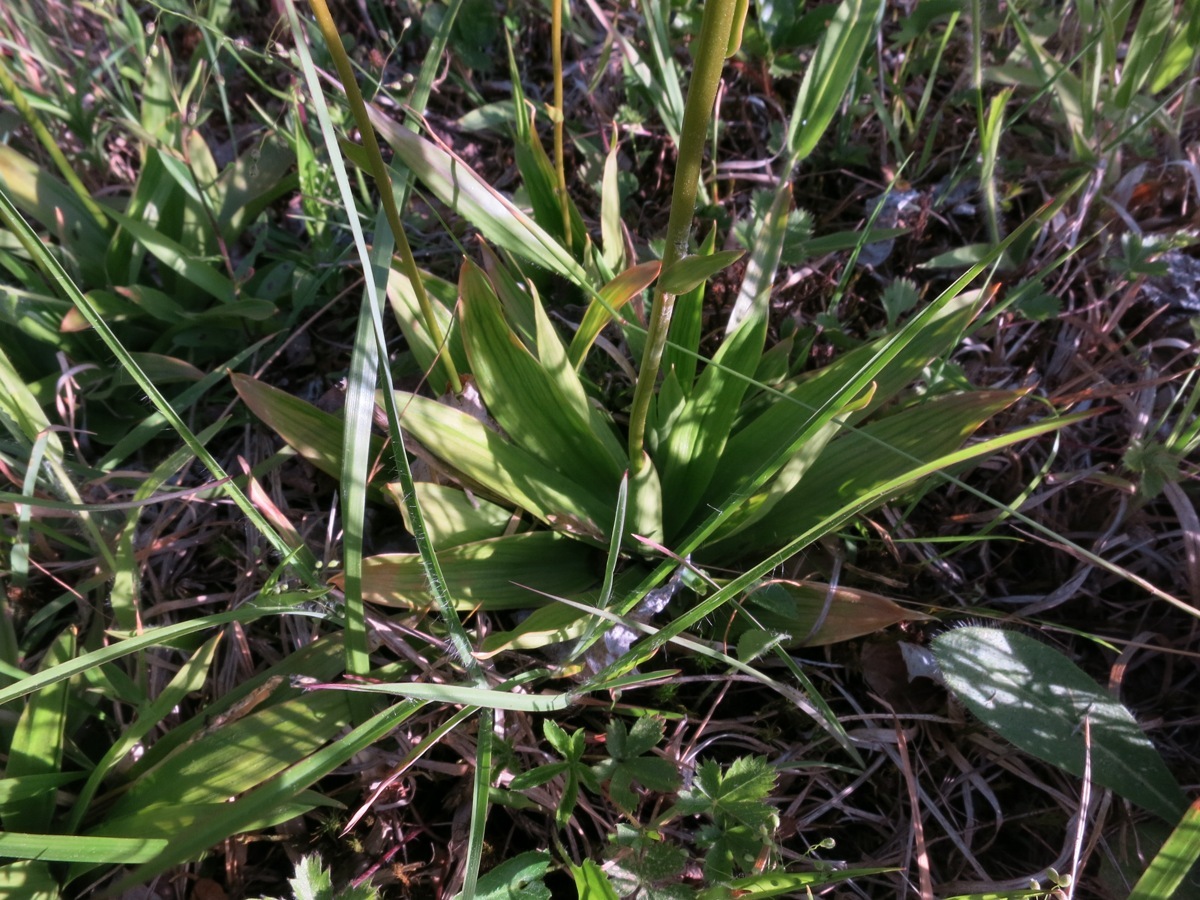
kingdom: Plantae
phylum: Tracheophyta
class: Liliopsida
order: Dioscoreales
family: Nartheciaceae
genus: Aletris
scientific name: Aletris farinosa
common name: Colicroot
